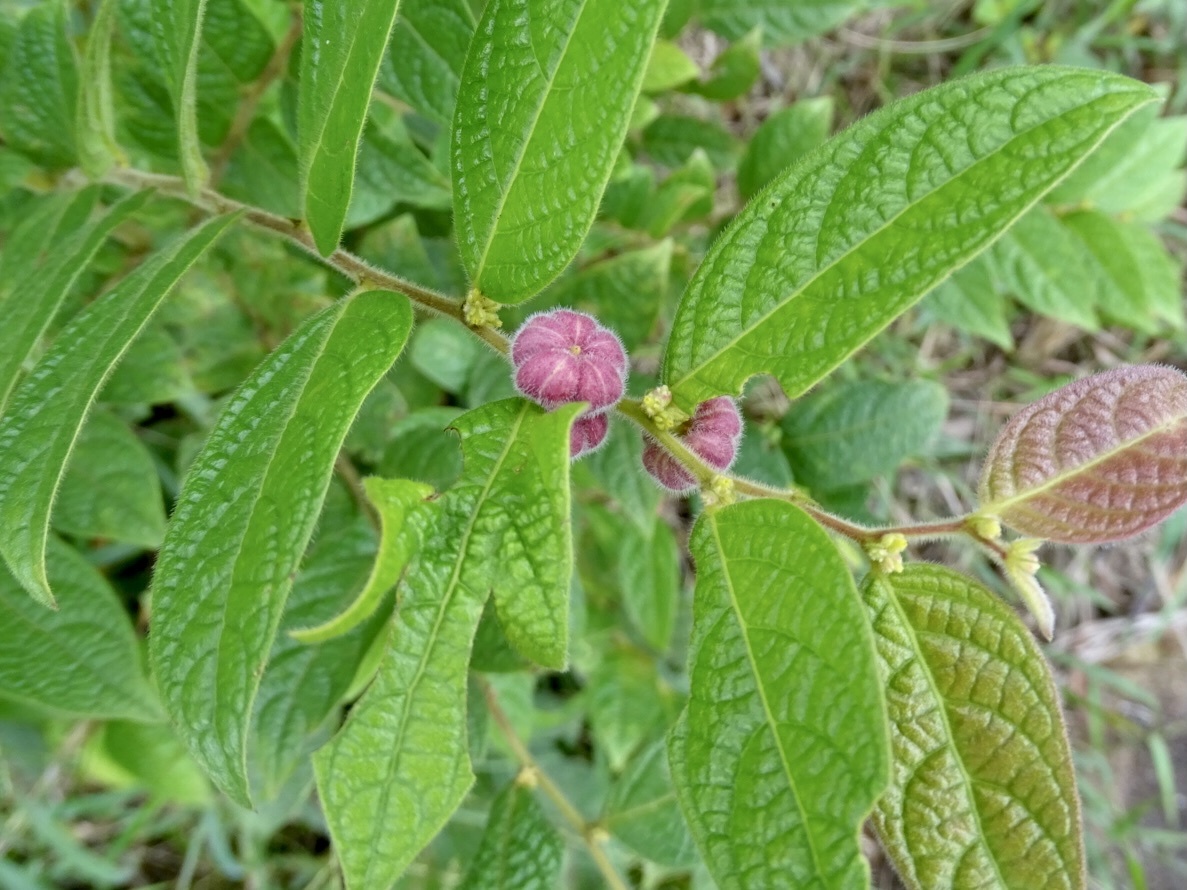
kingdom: Plantae
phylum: Tracheophyta
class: Magnoliopsida
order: Malpighiales
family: Phyllanthaceae
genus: Glochidion
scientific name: Glochidion eriocarpum
